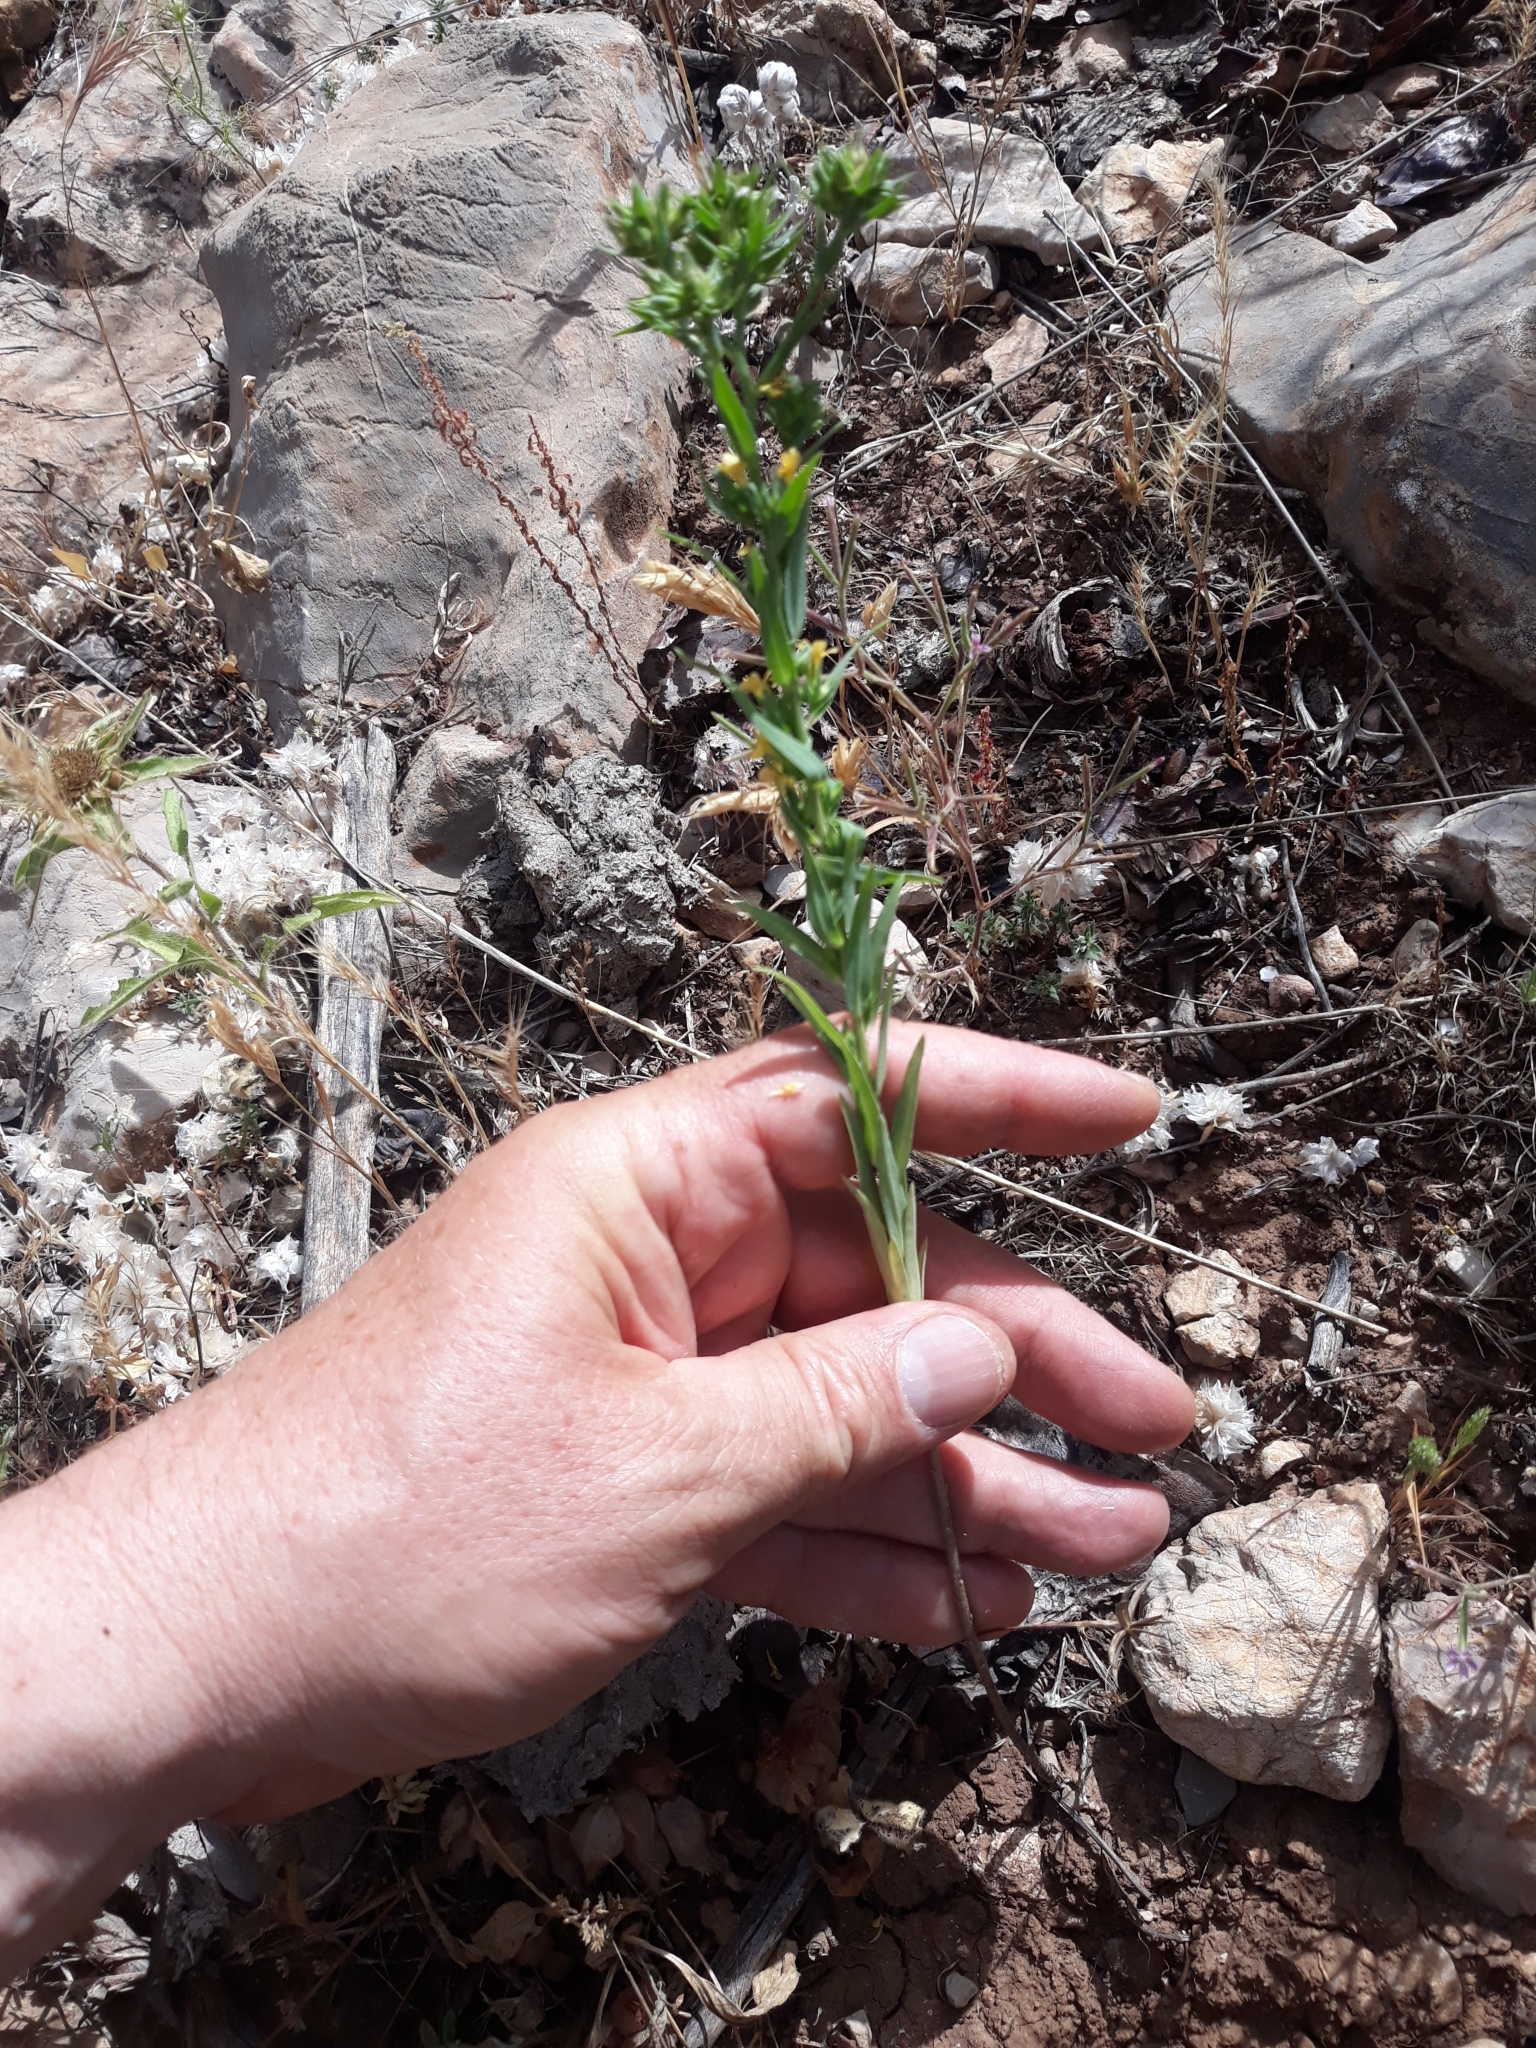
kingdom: Plantae
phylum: Tracheophyta
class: Magnoliopsida
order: Malpighiales
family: Linaceae
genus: Linum
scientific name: Linum strictum
